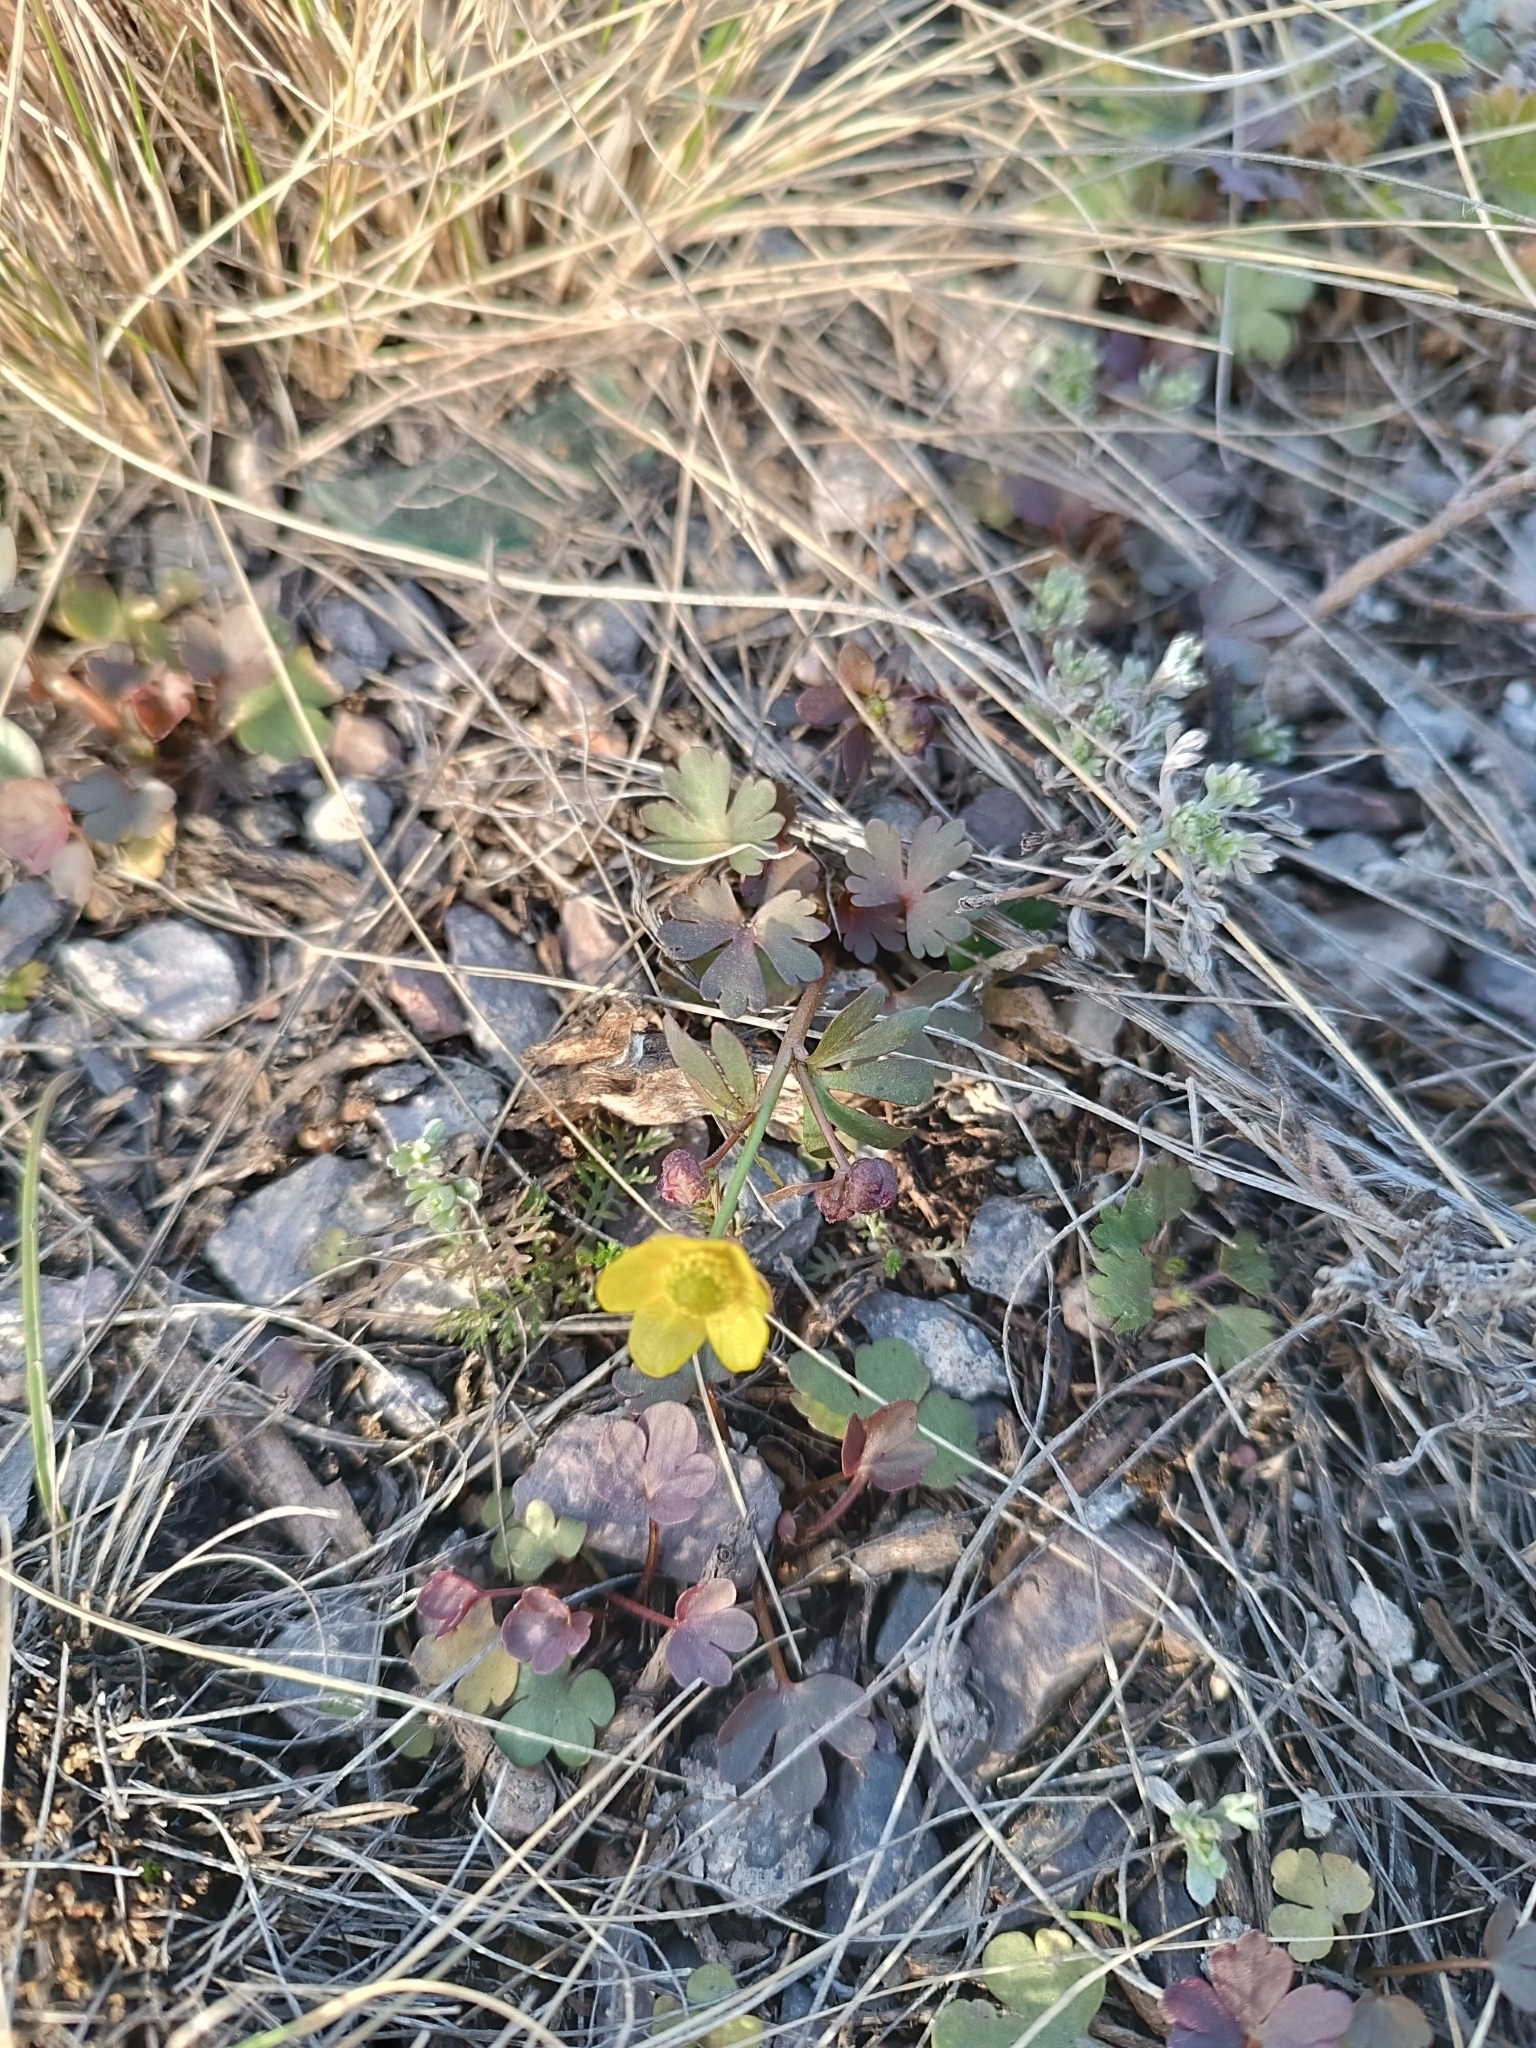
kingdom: Plantae
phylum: Tracheophyta
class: Magnoliopsida
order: Ranunculales
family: Ranunculaceae
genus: Ranunculus
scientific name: Ranunculus polyrhizos
